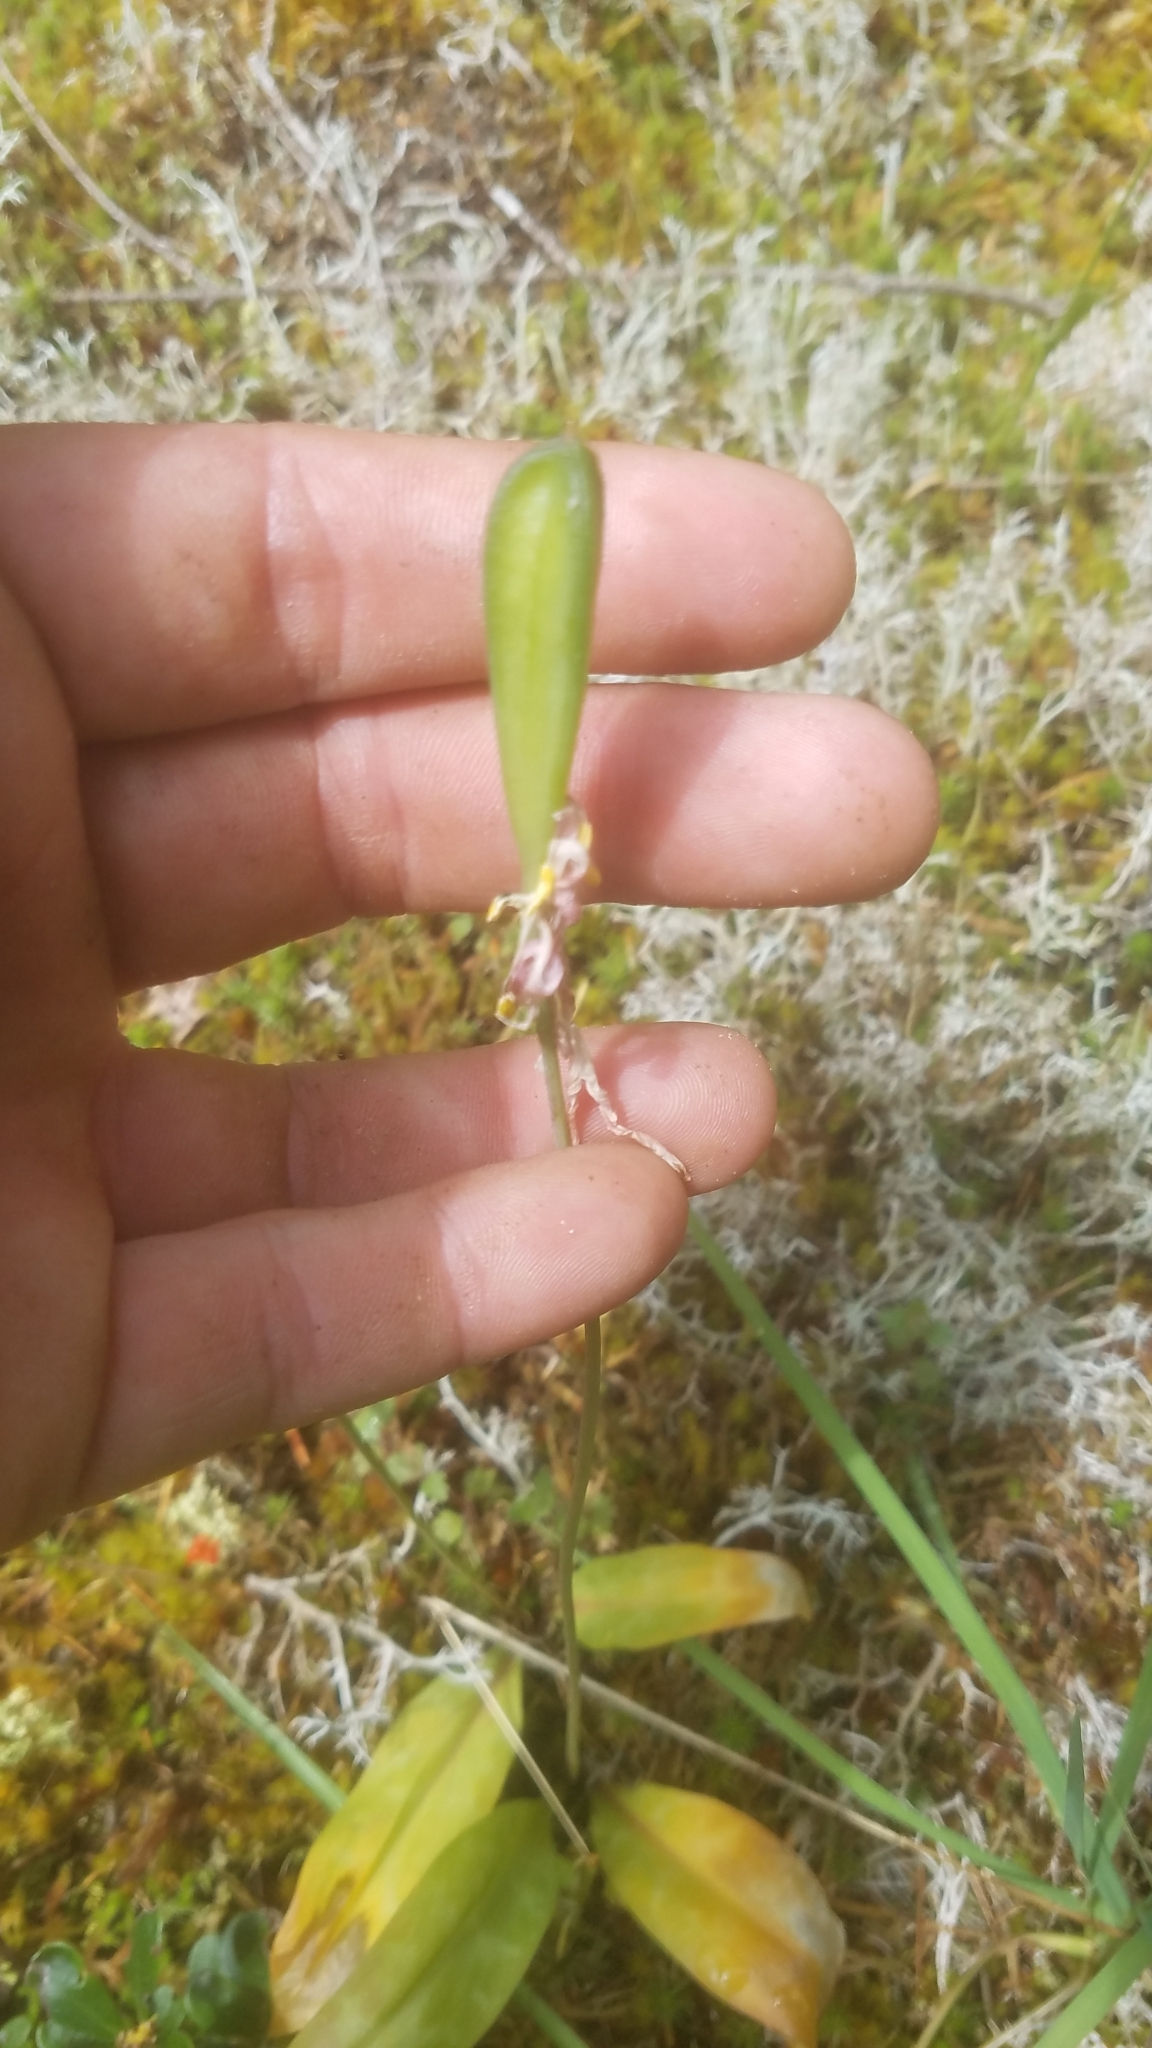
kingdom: Plantae
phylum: Tracheophyta
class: Liliopsida
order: Liliales
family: Liliaceae
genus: Erythronium
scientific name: Erythronium oregonum
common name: Giant adder's-tongue
